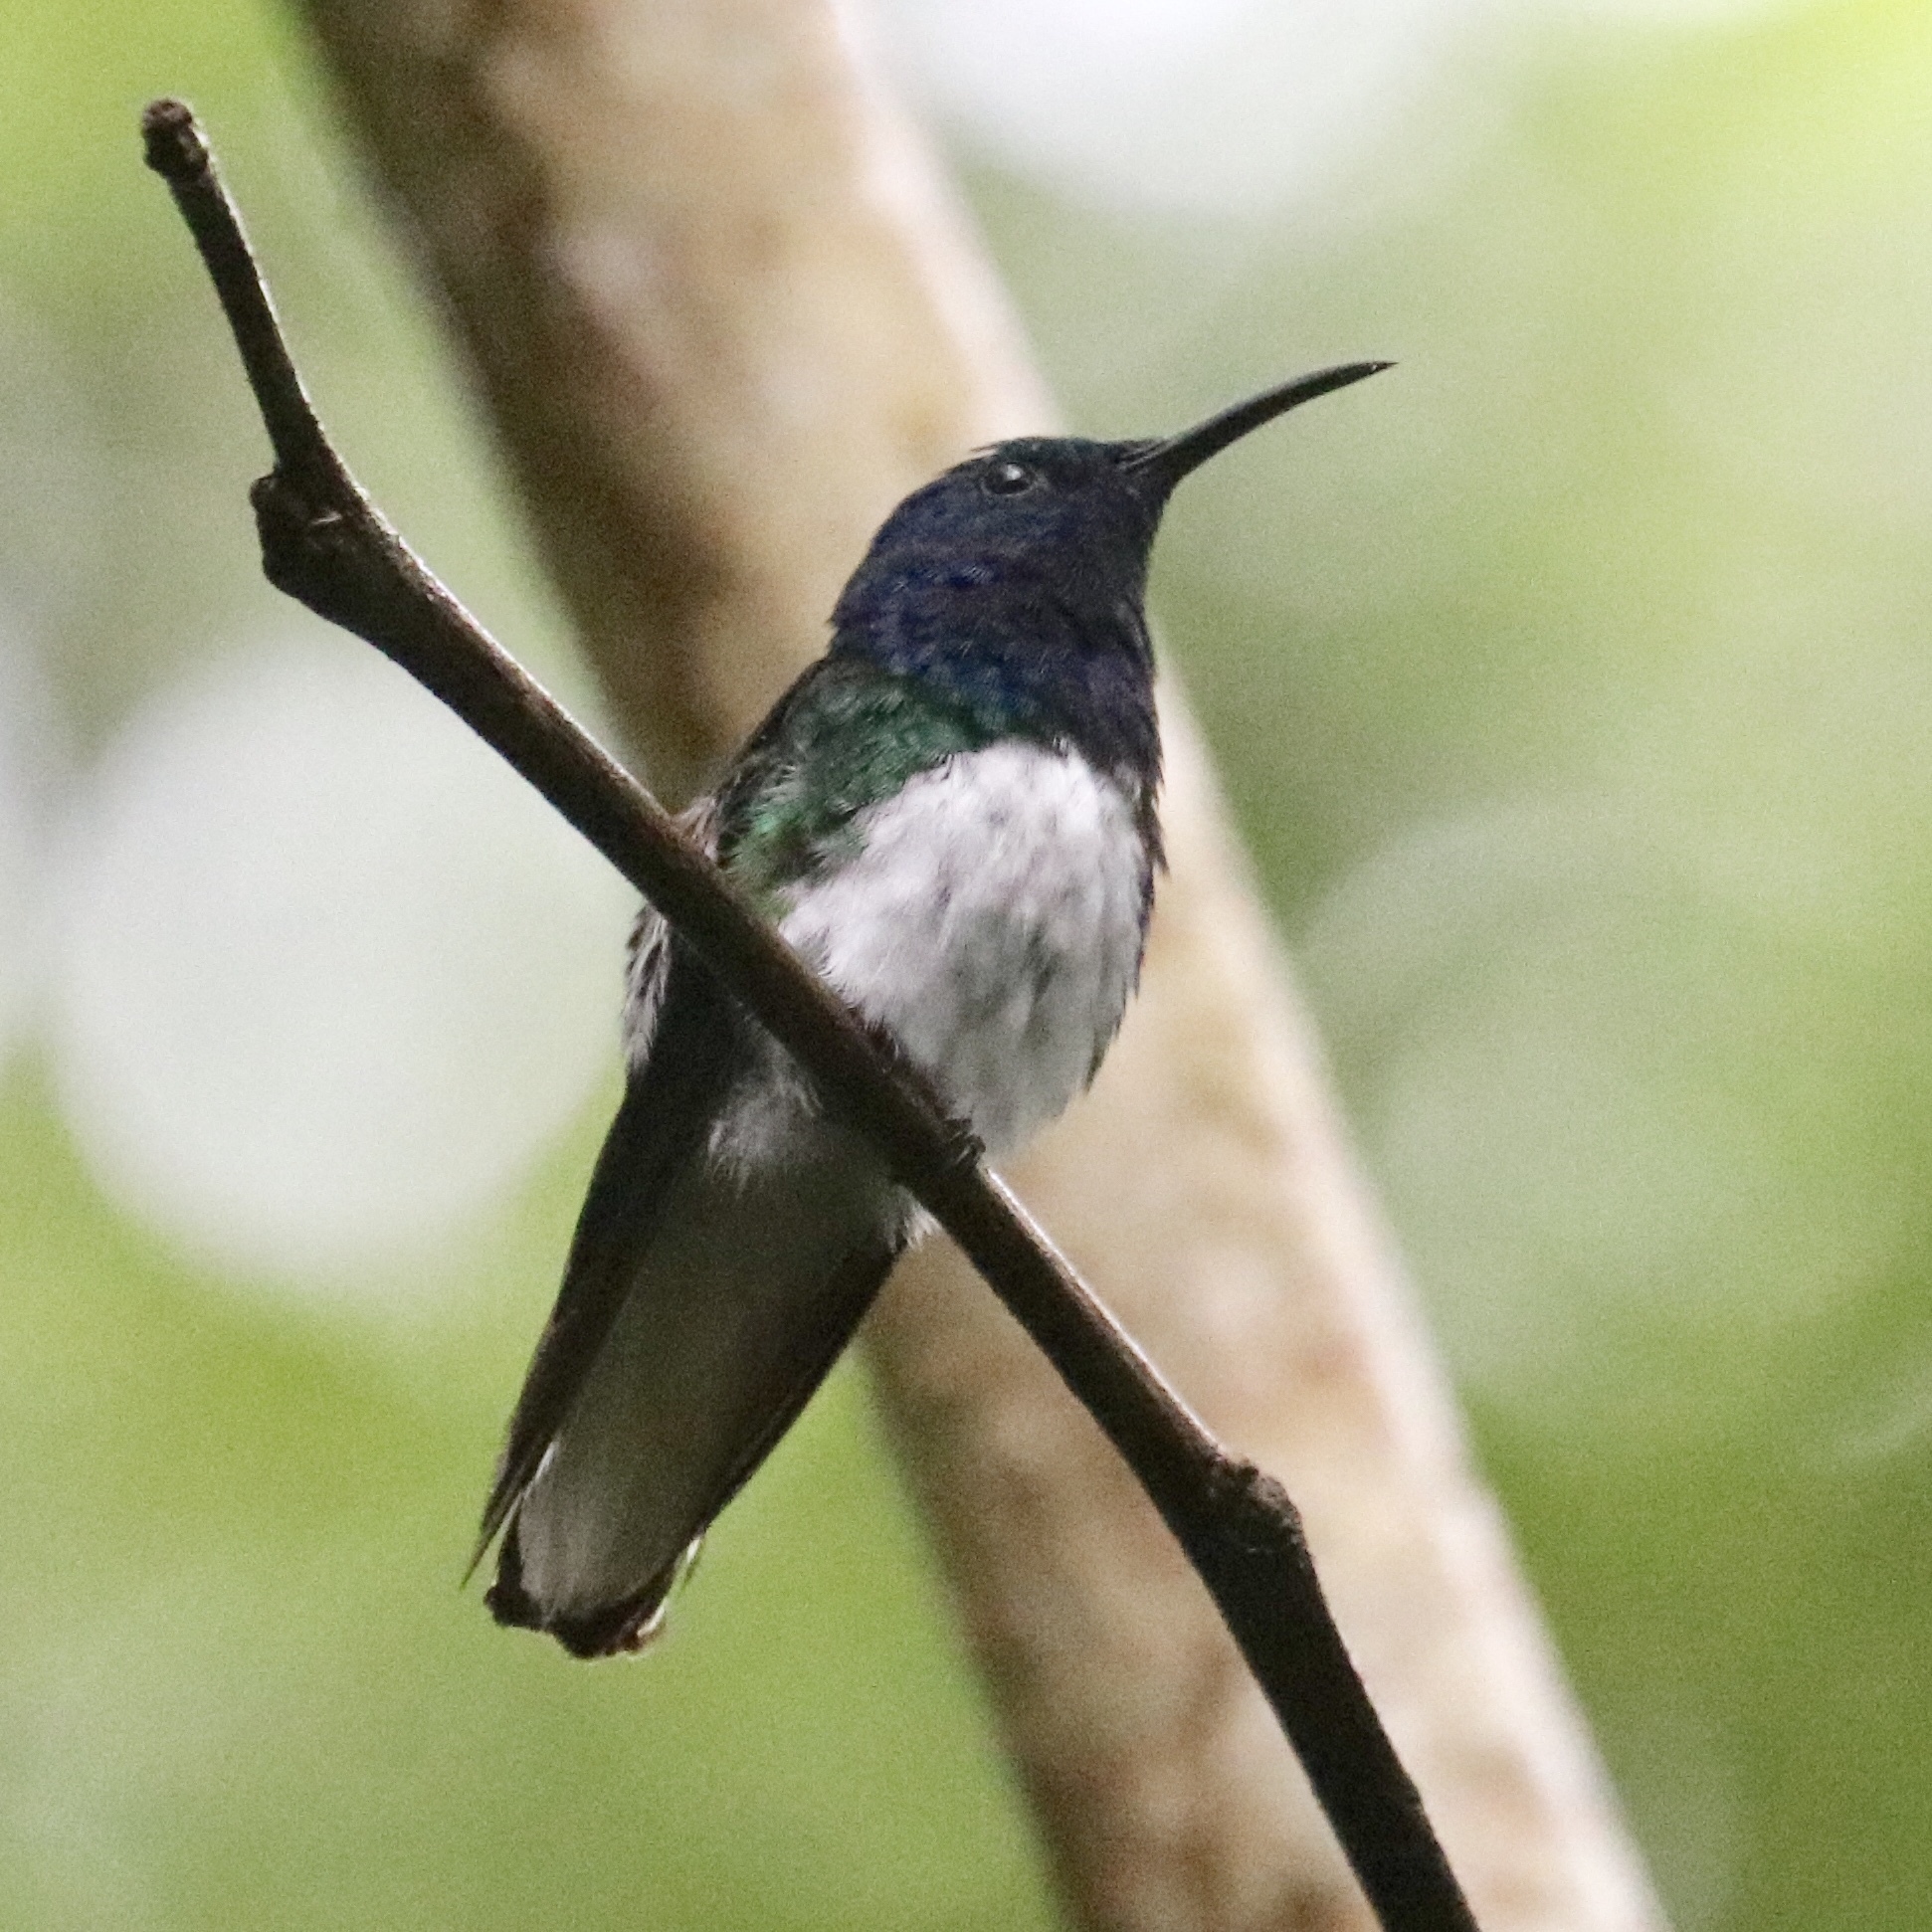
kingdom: Animalia
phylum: Chordata
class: Aves
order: Apodiformes
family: Trochilidae
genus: Florisuga
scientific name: Florisuga mellivora
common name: White-necked jacobin
